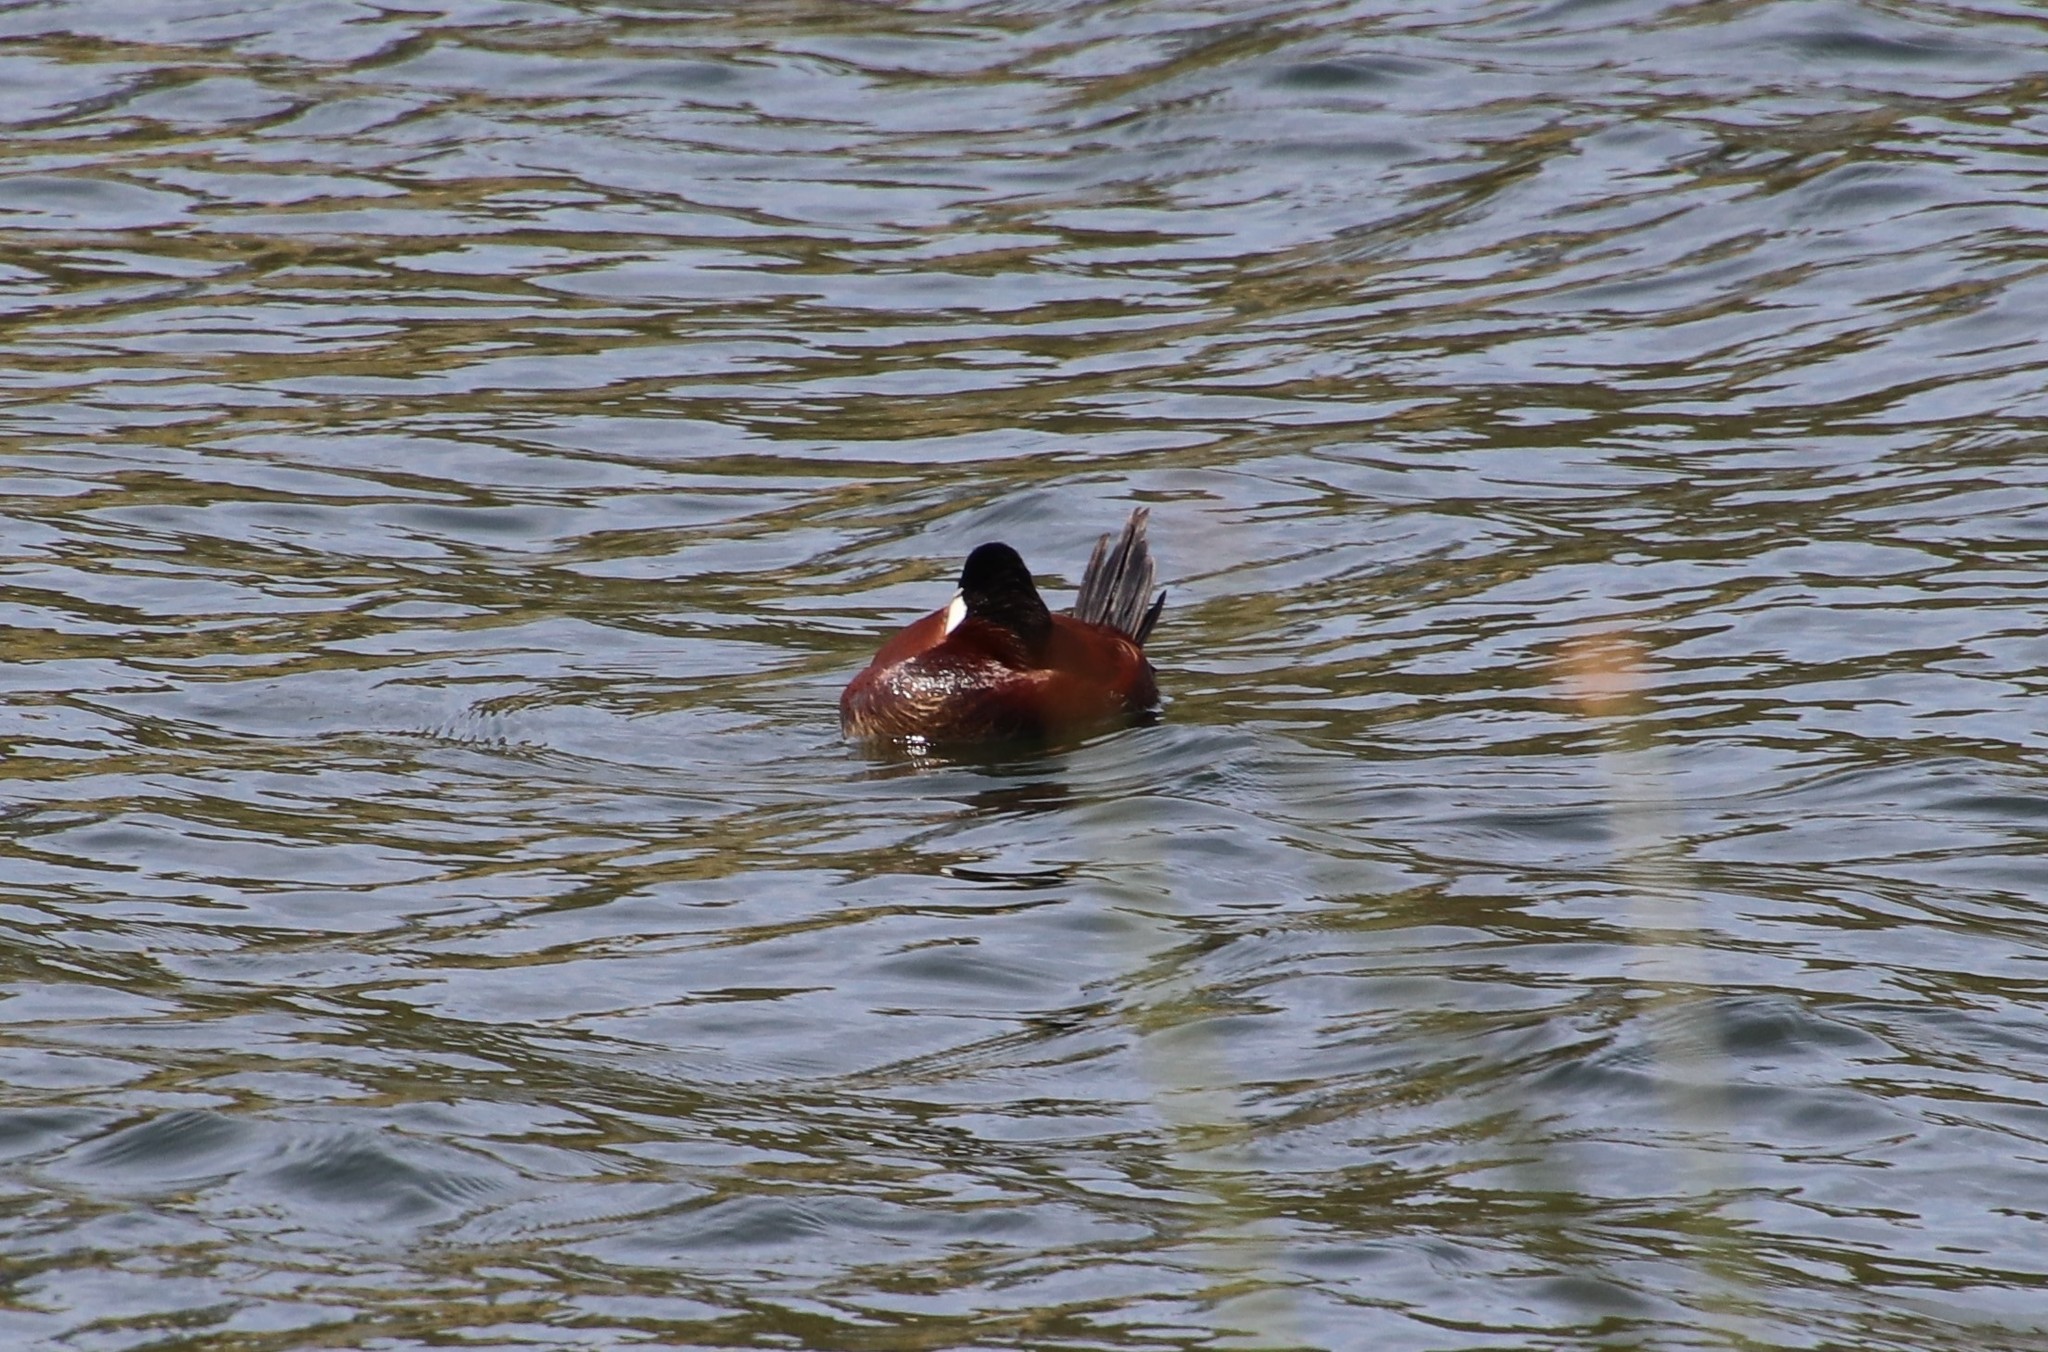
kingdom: Animalia
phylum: Chordata
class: Aves
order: Anseriformes
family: Anatidae
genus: Oxyura
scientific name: Oxyura jamaicensis
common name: Ruddy duck
